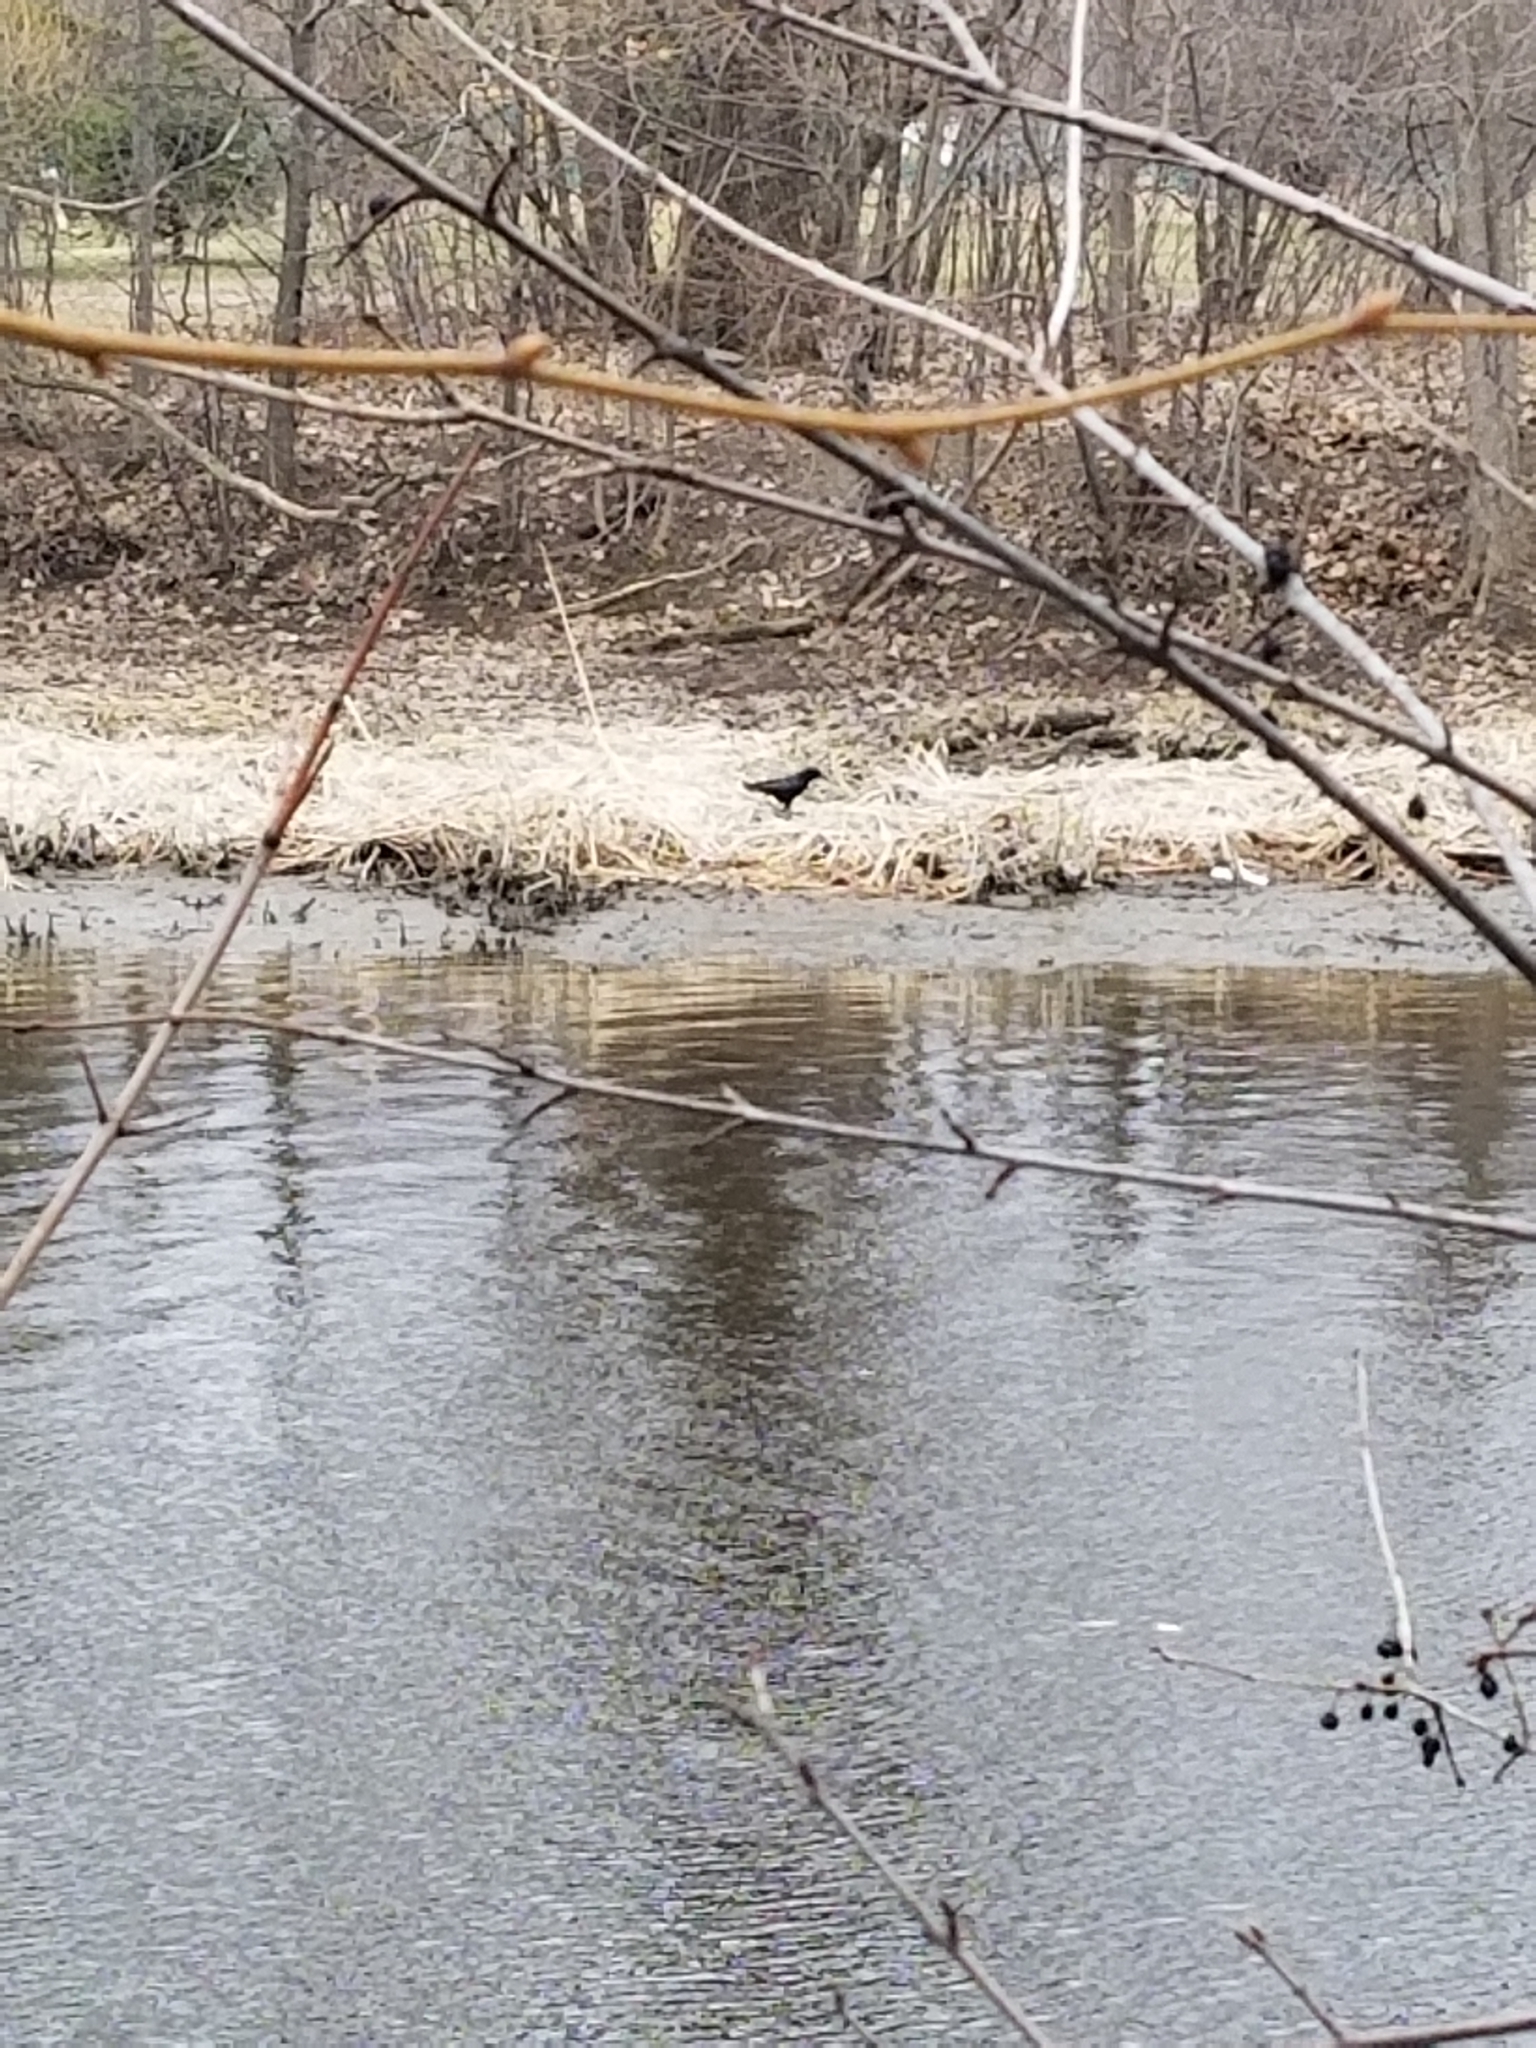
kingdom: Animalia
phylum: Chordata
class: Aves
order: Passeriformes
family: Corvidae
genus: Corvus
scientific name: Corvus brachyrhynchos
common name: American crow
